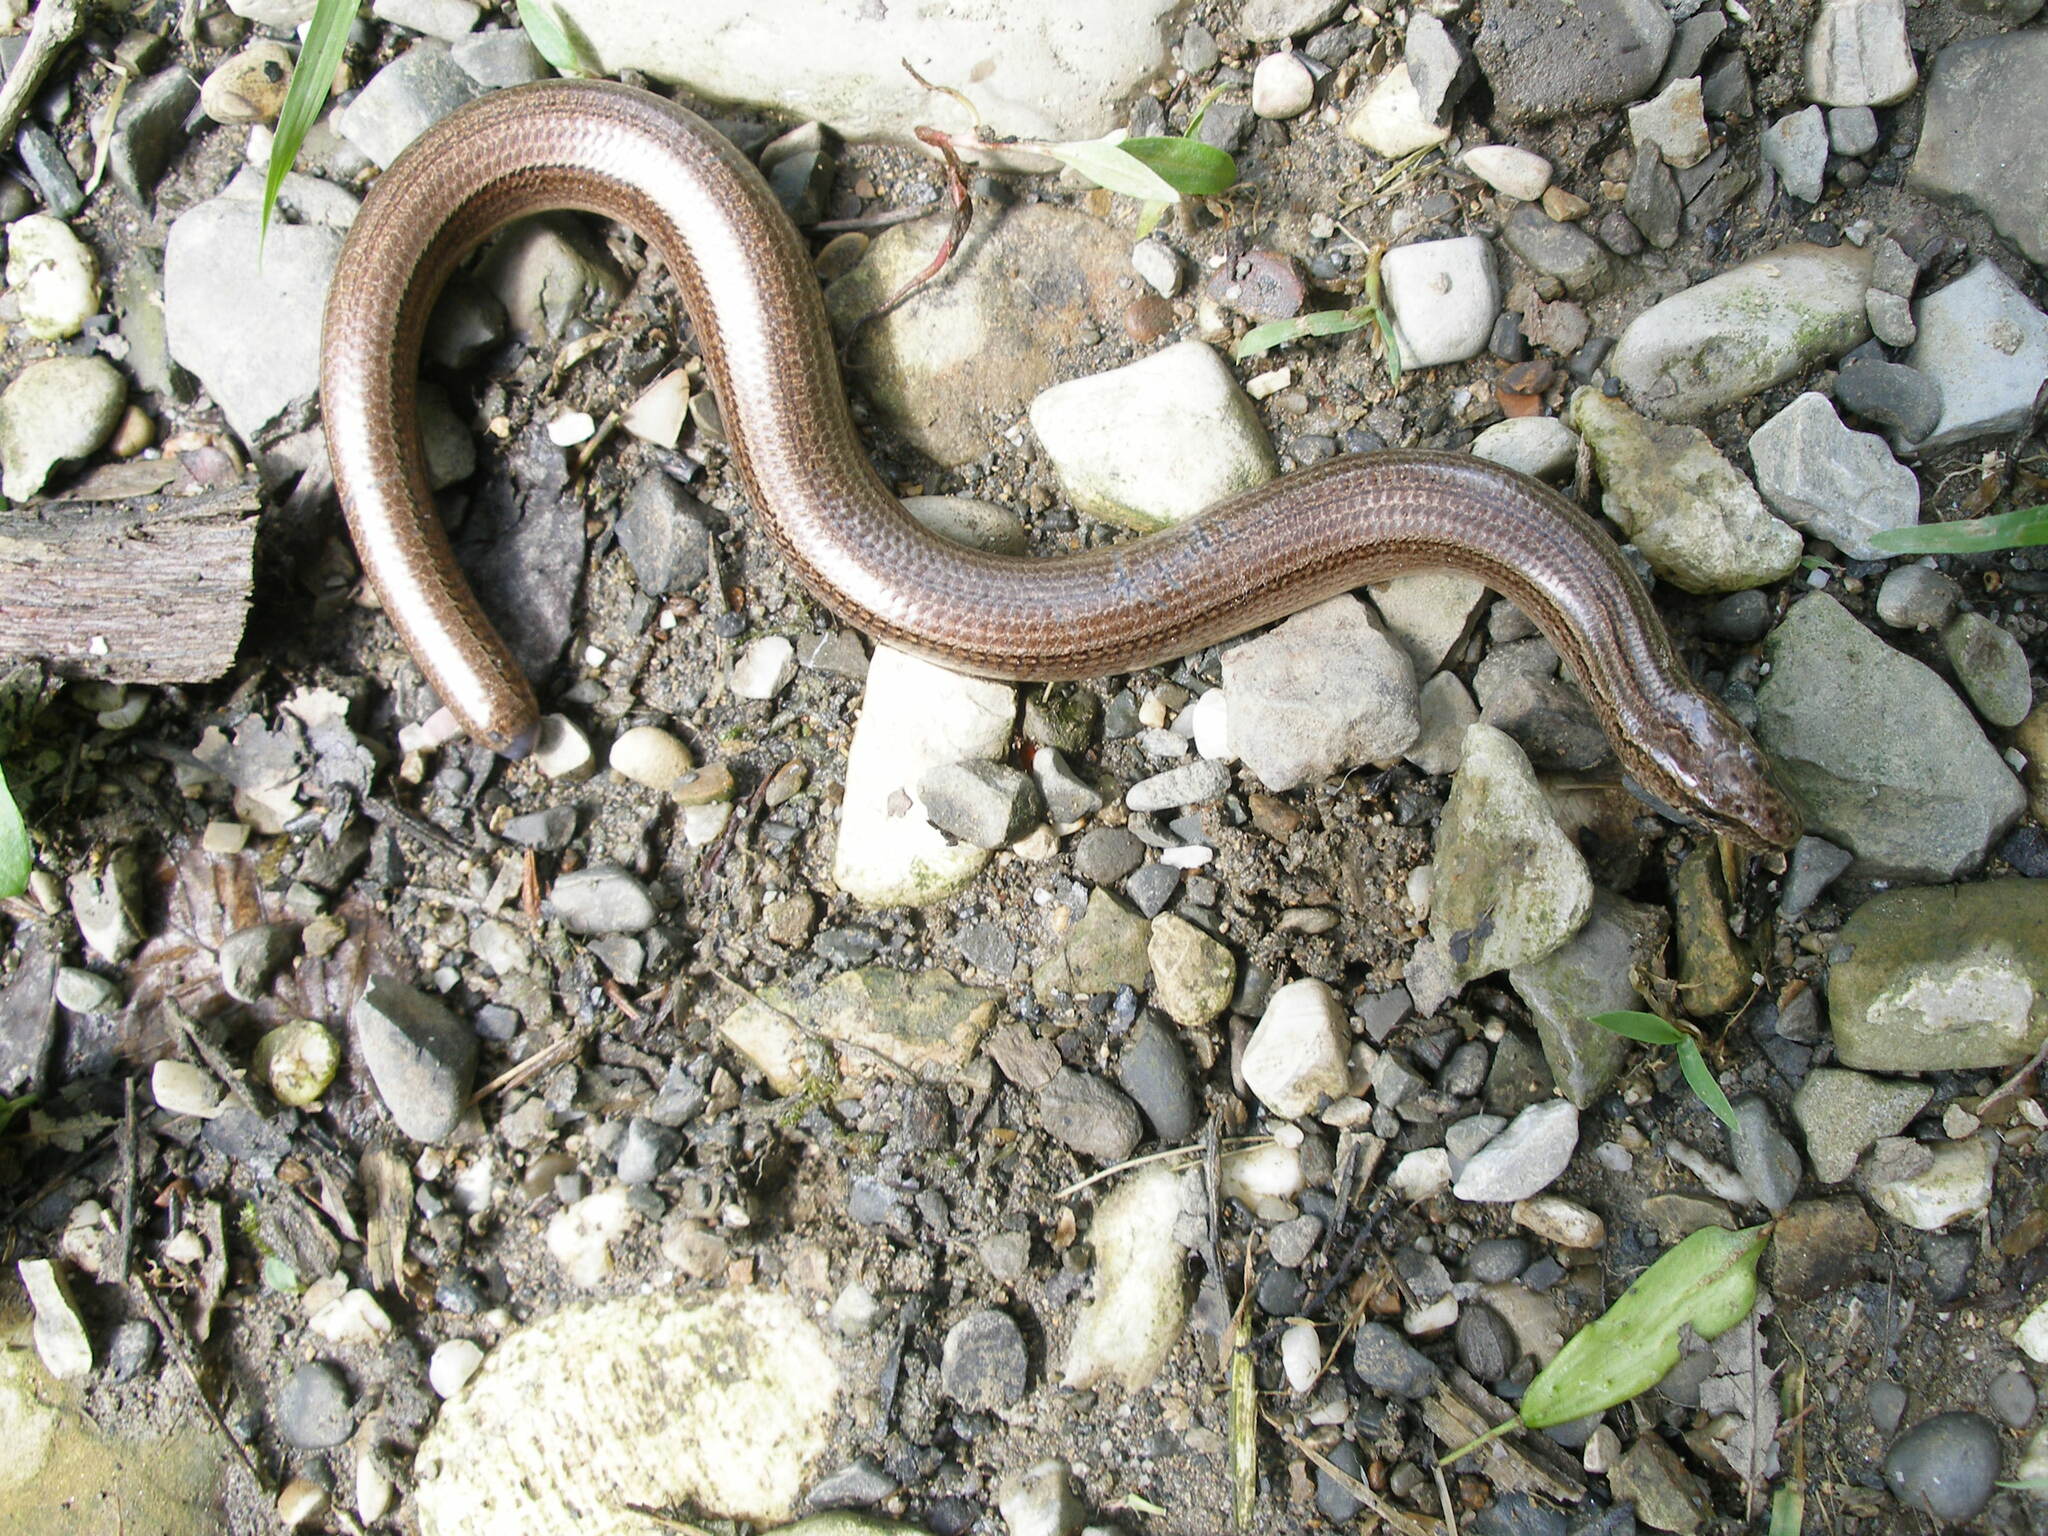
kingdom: Animalia
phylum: Chordata
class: Squamata
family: Anguidae
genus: Anguis
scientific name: Anguis colchica
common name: Slow worm
